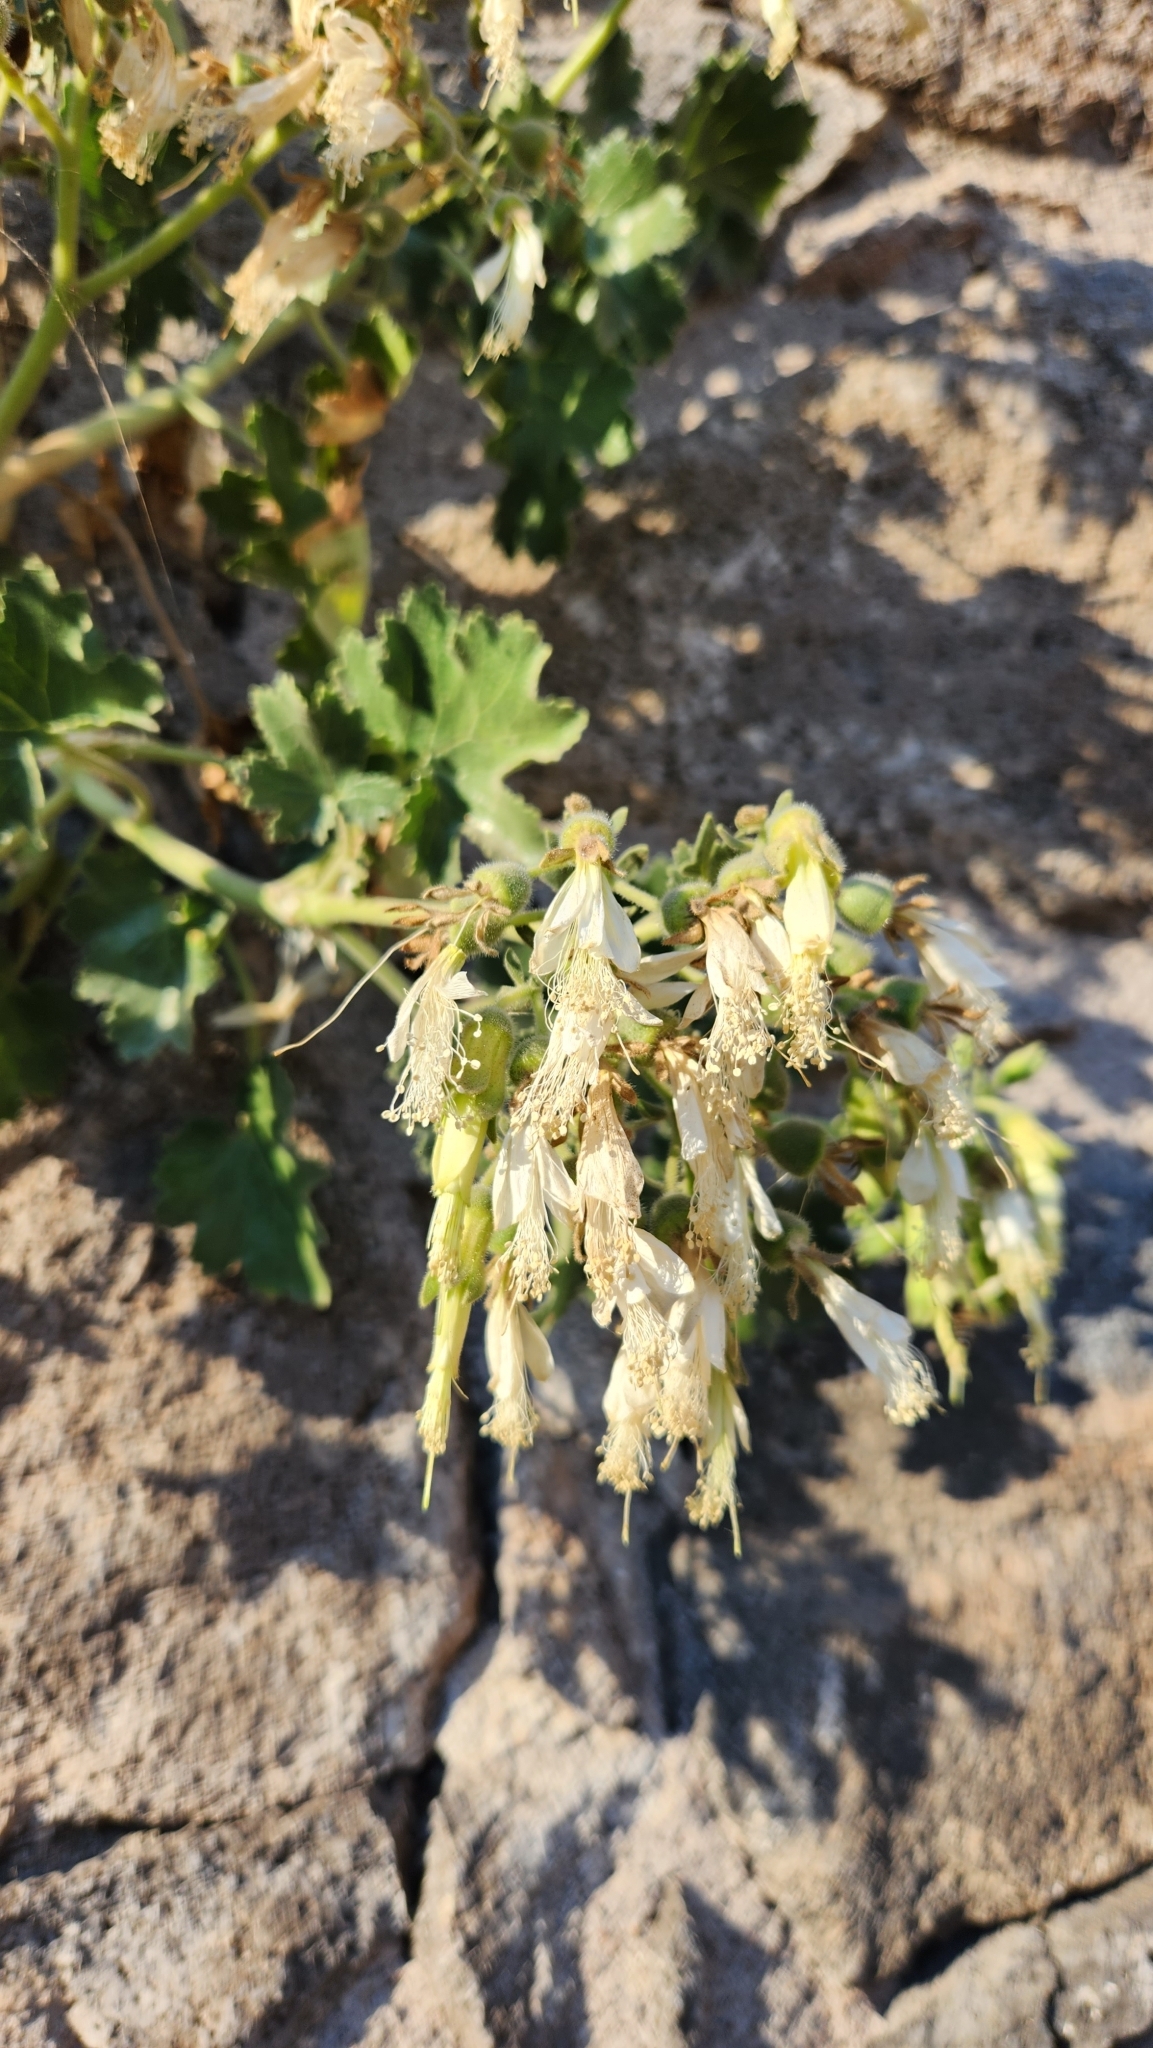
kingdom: Plantae
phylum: Tracheophyta
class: Magnoliopsida
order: Cornales
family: Loasaceae
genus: Eucnide
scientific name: Eucnide cordata
